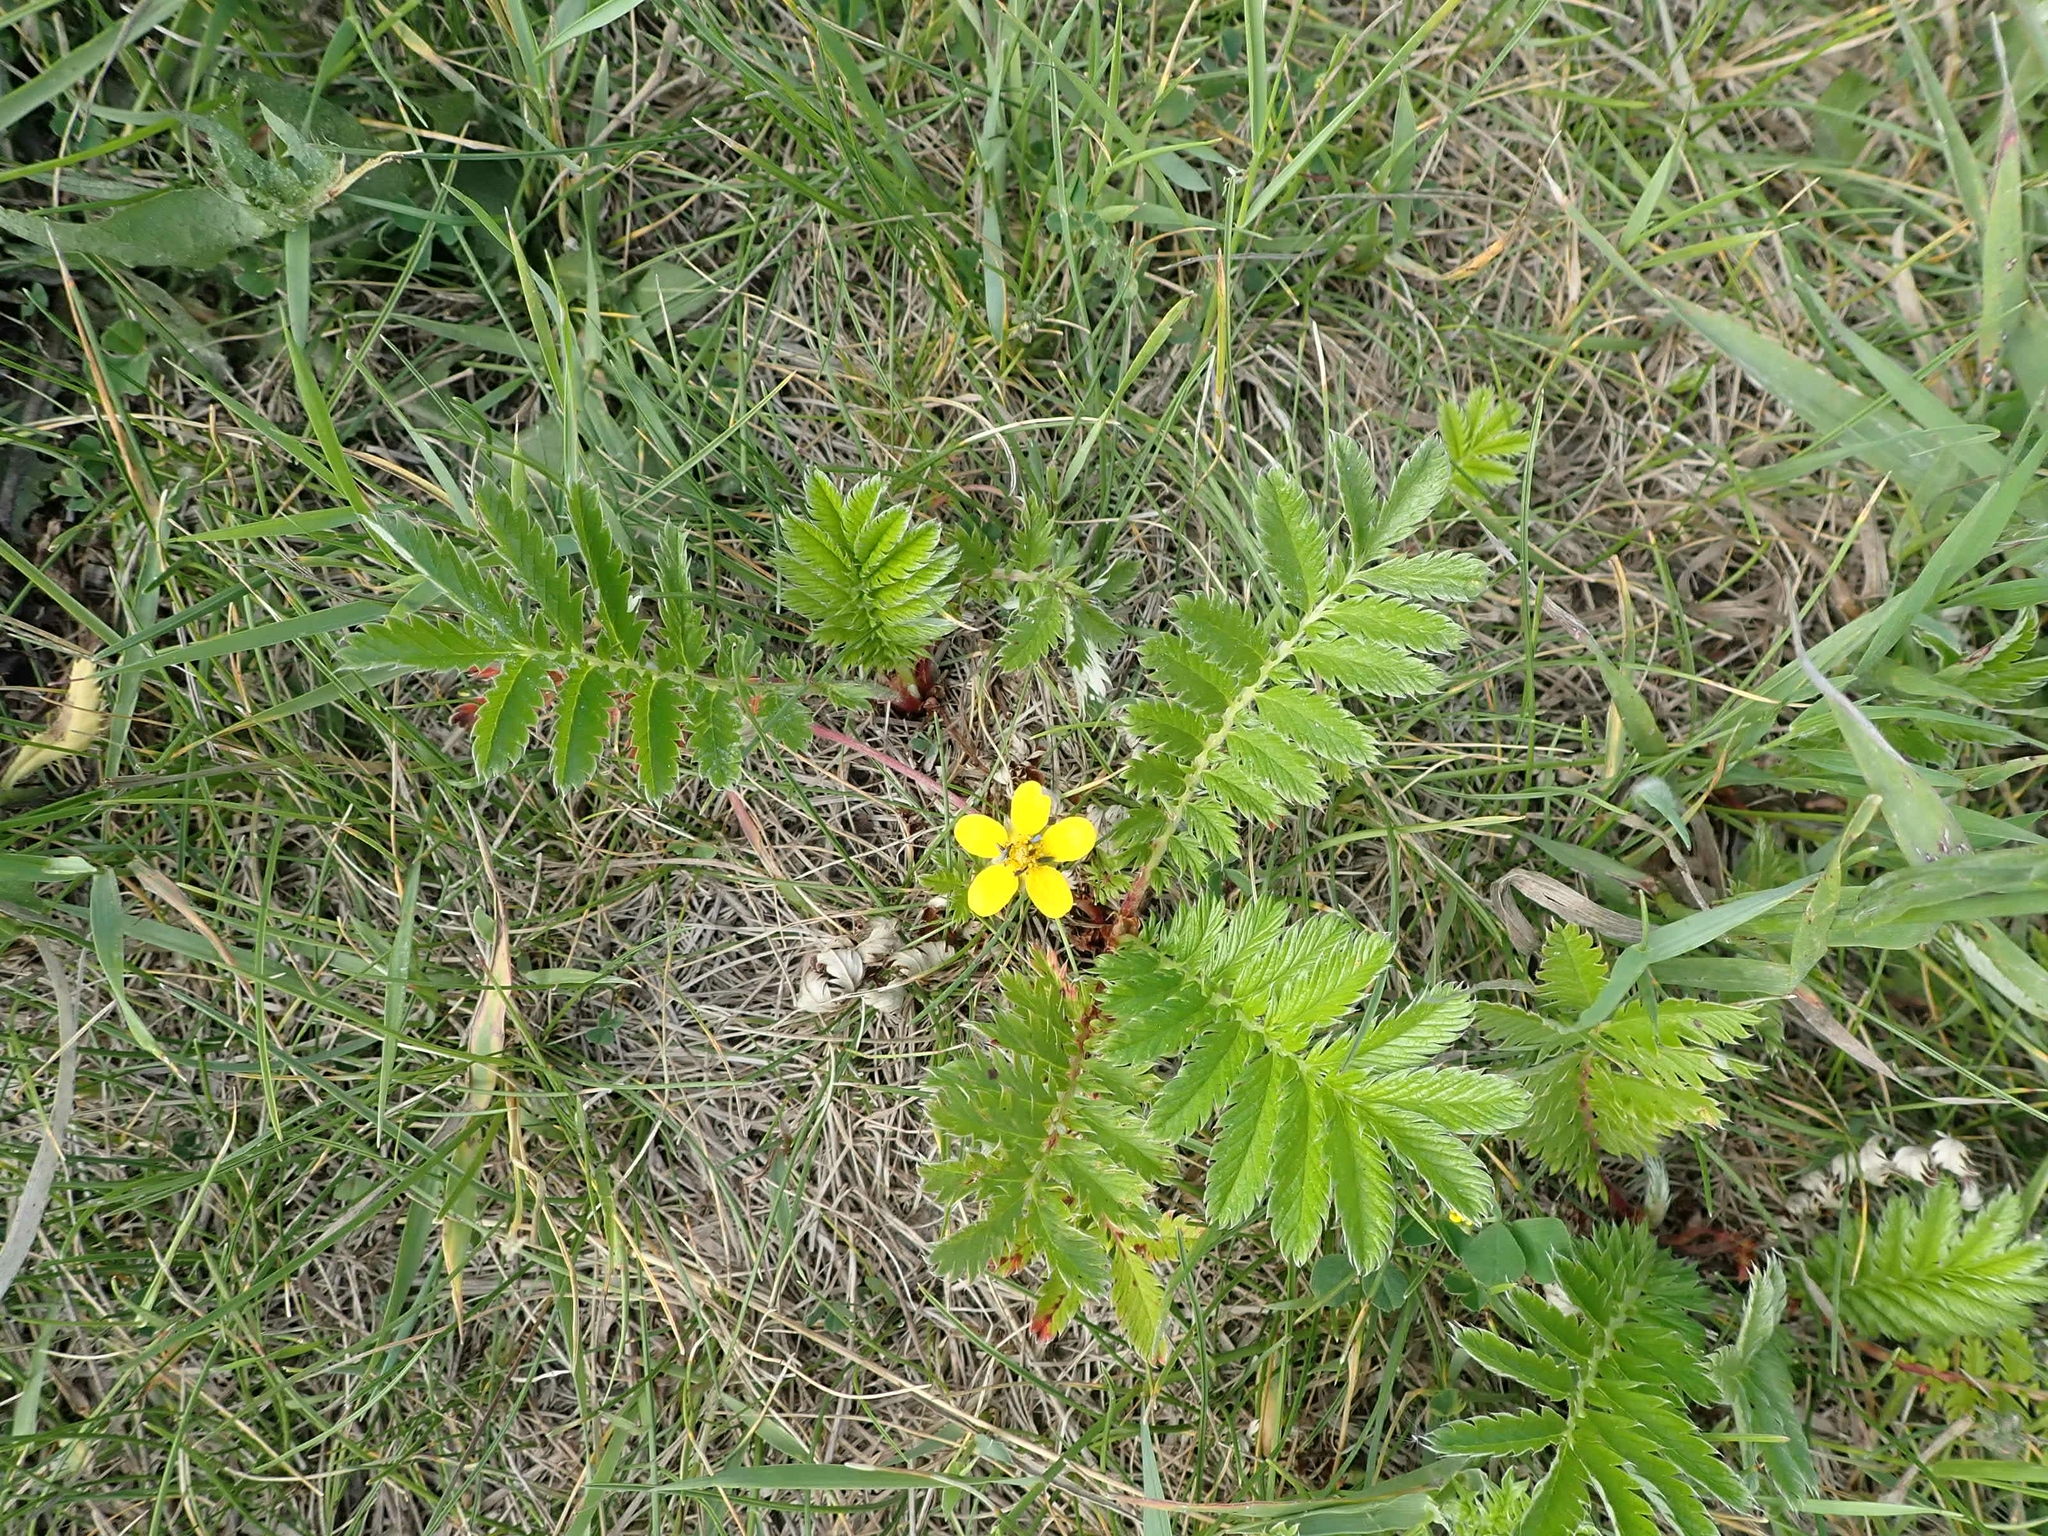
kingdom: Plantae
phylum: Tracheophyta
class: Magnoliopsida
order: Rosales
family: Rosaceae
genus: Argentina
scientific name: Argentina anserina
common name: Common silverweed
